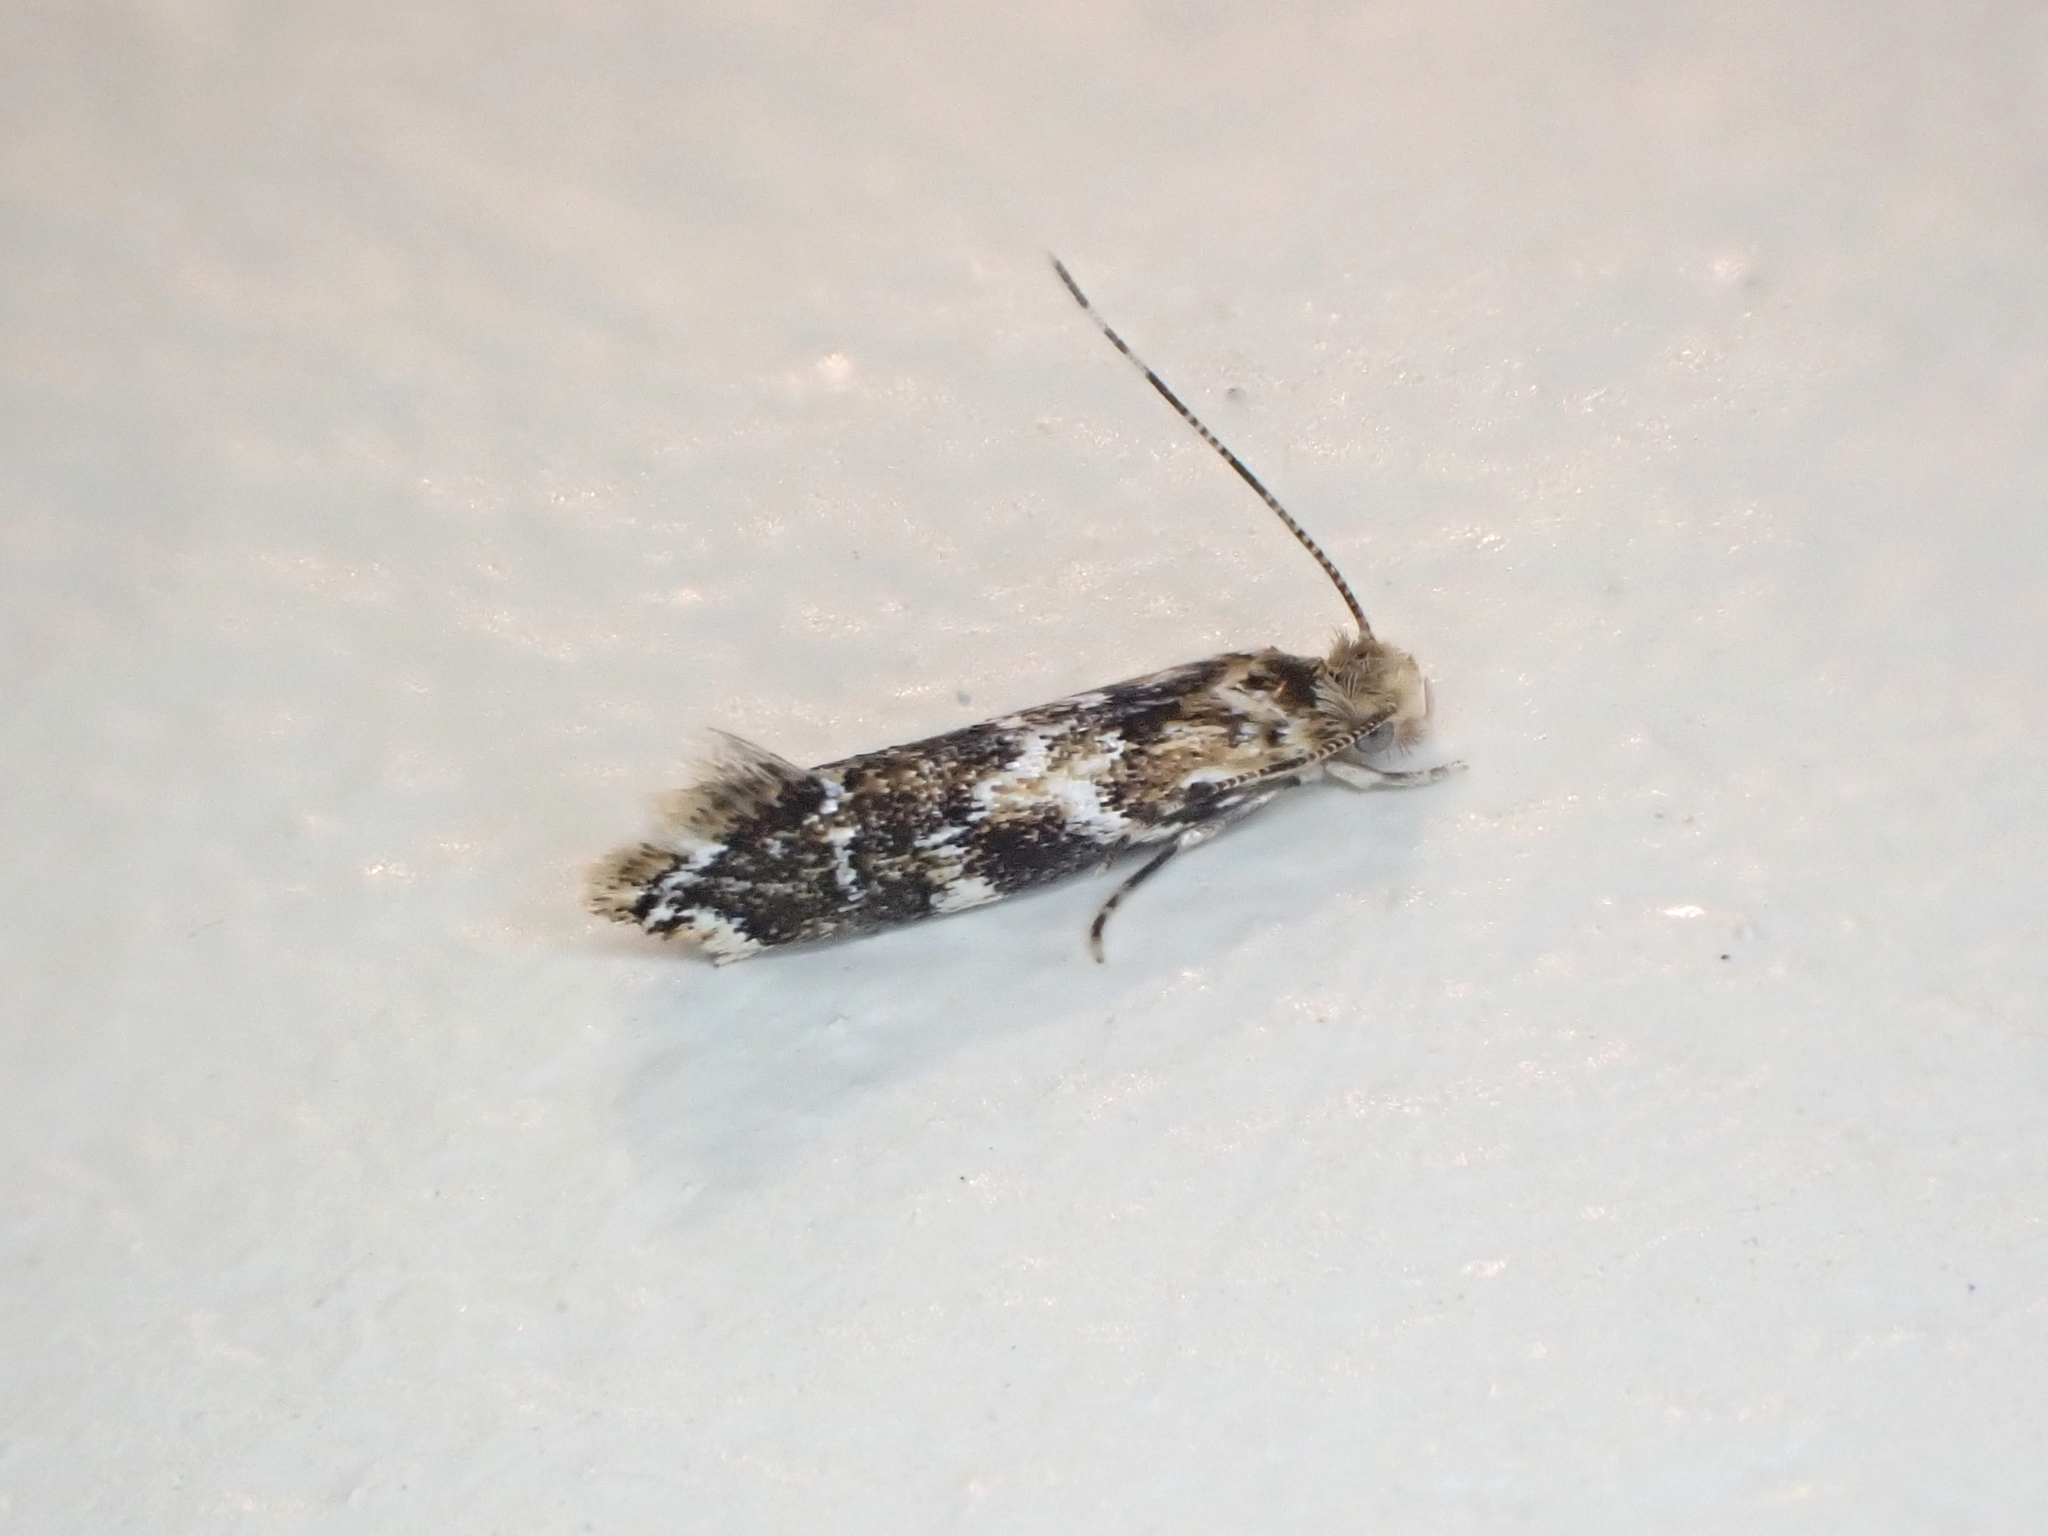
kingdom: Animalia
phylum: Arthropoda
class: Insecta
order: Lepidoptera
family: Dryadaulidae
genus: Dryadaula
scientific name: Dryadaula pactolia
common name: Cellar clothes
